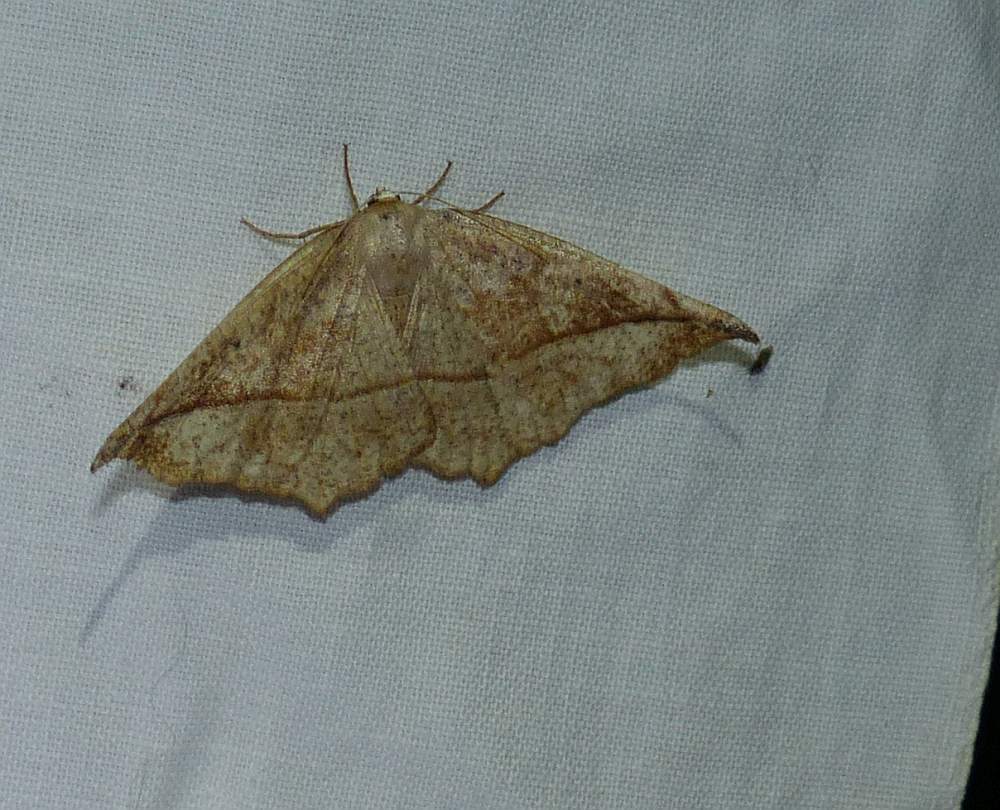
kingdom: Animalia
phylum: Arthropoda
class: Insecta
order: Lepidoptera
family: Geometridae
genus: Eutrapela
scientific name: Eutrapela clemataria
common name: Curved-toothed geometer
